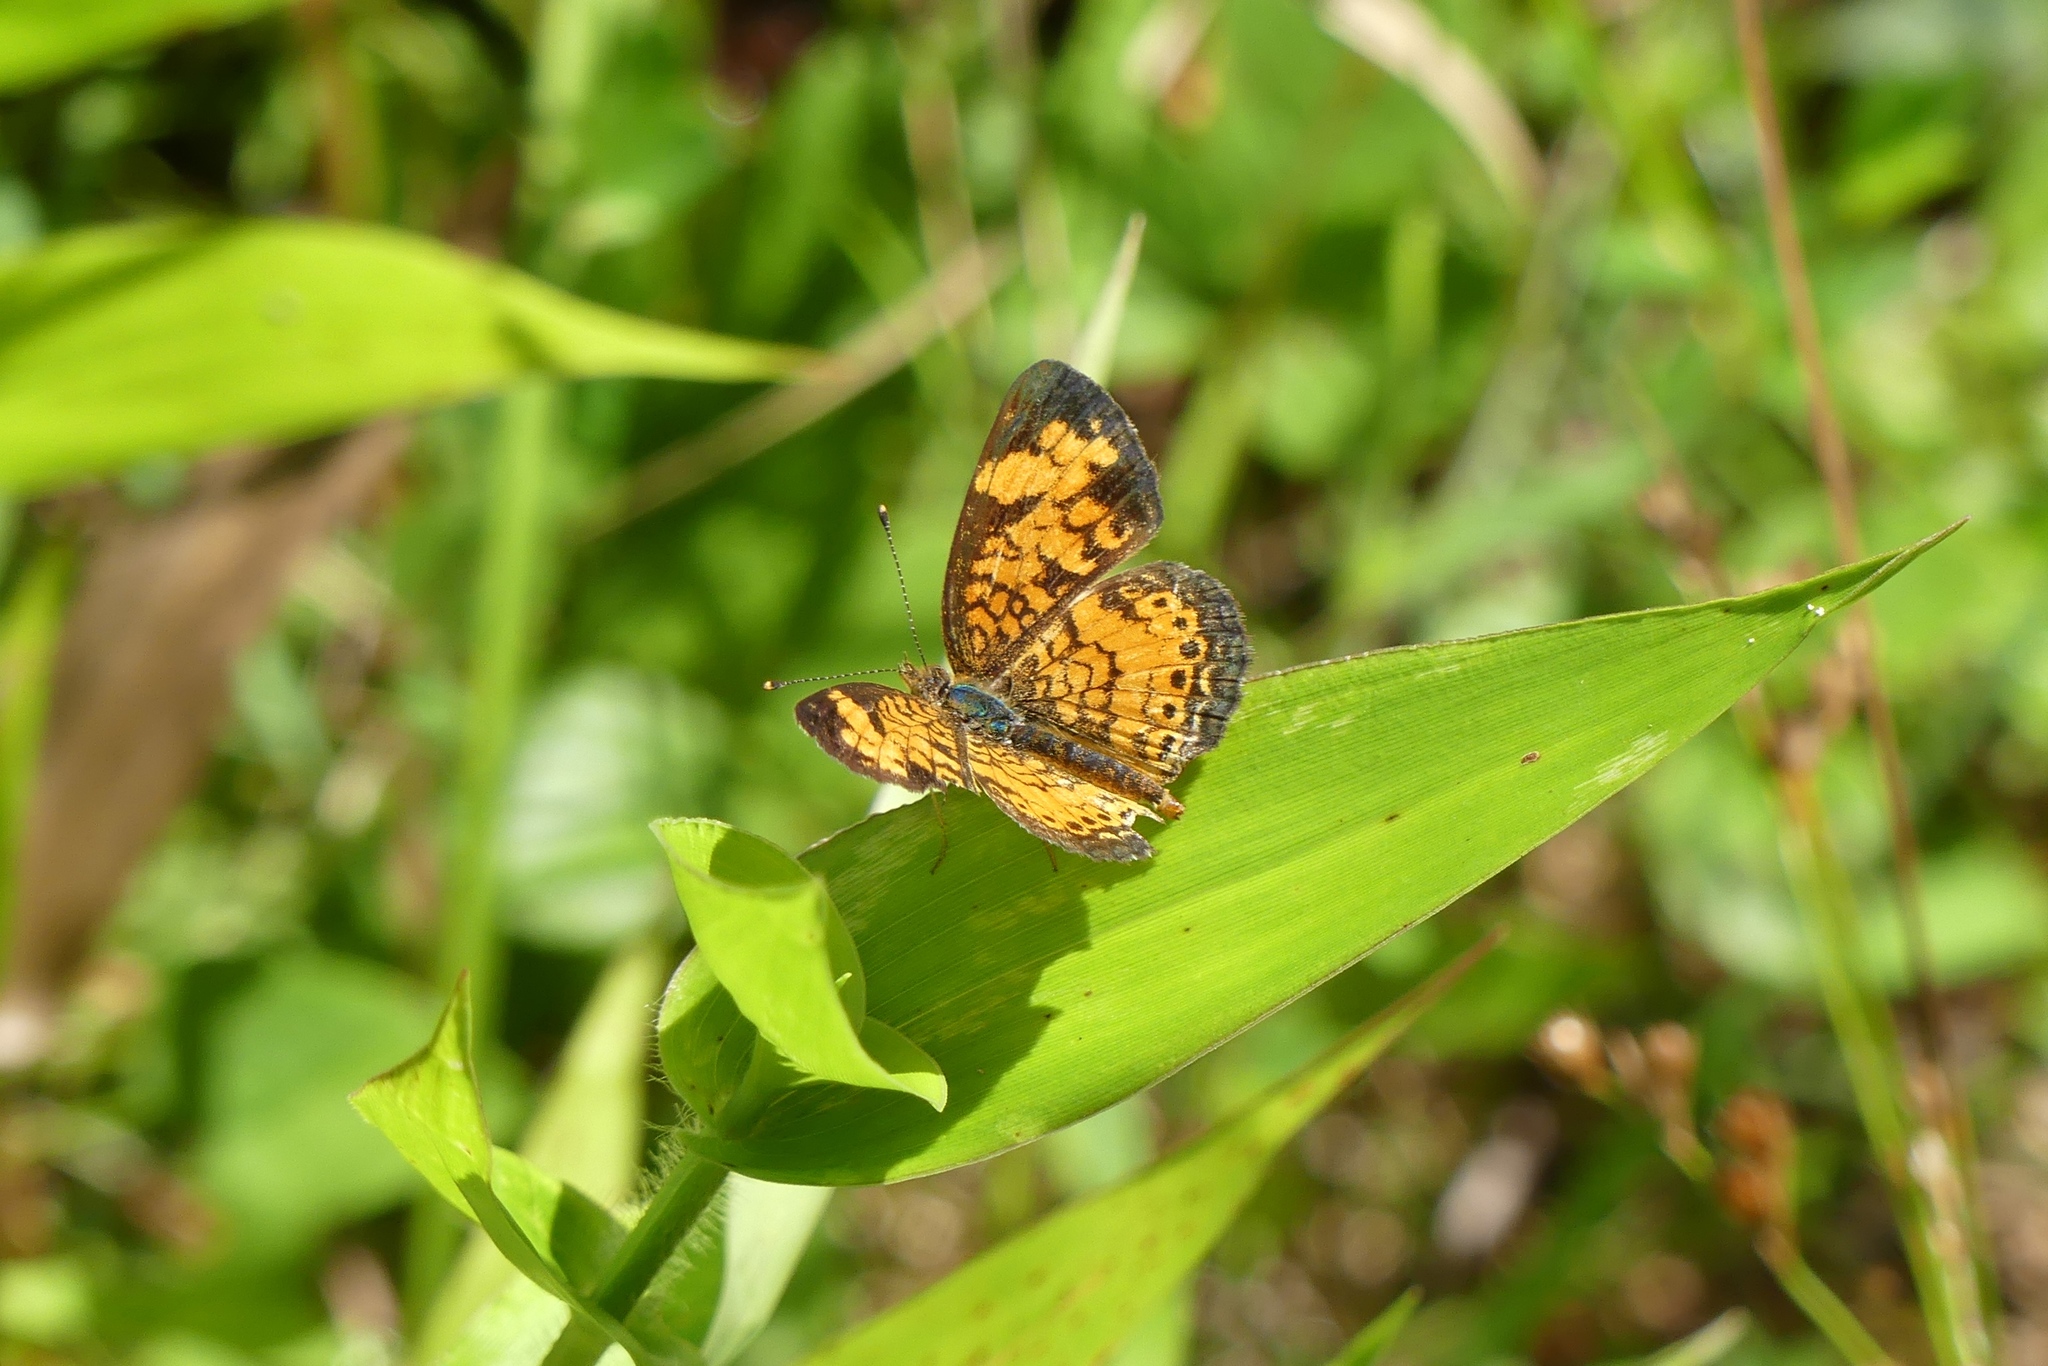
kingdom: Animalia
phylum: Arthropoda
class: Insecta
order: Lepidoptera
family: Nymphalidae
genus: Phyciodes
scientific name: Phyciodes tharos
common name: Pearl crescent
